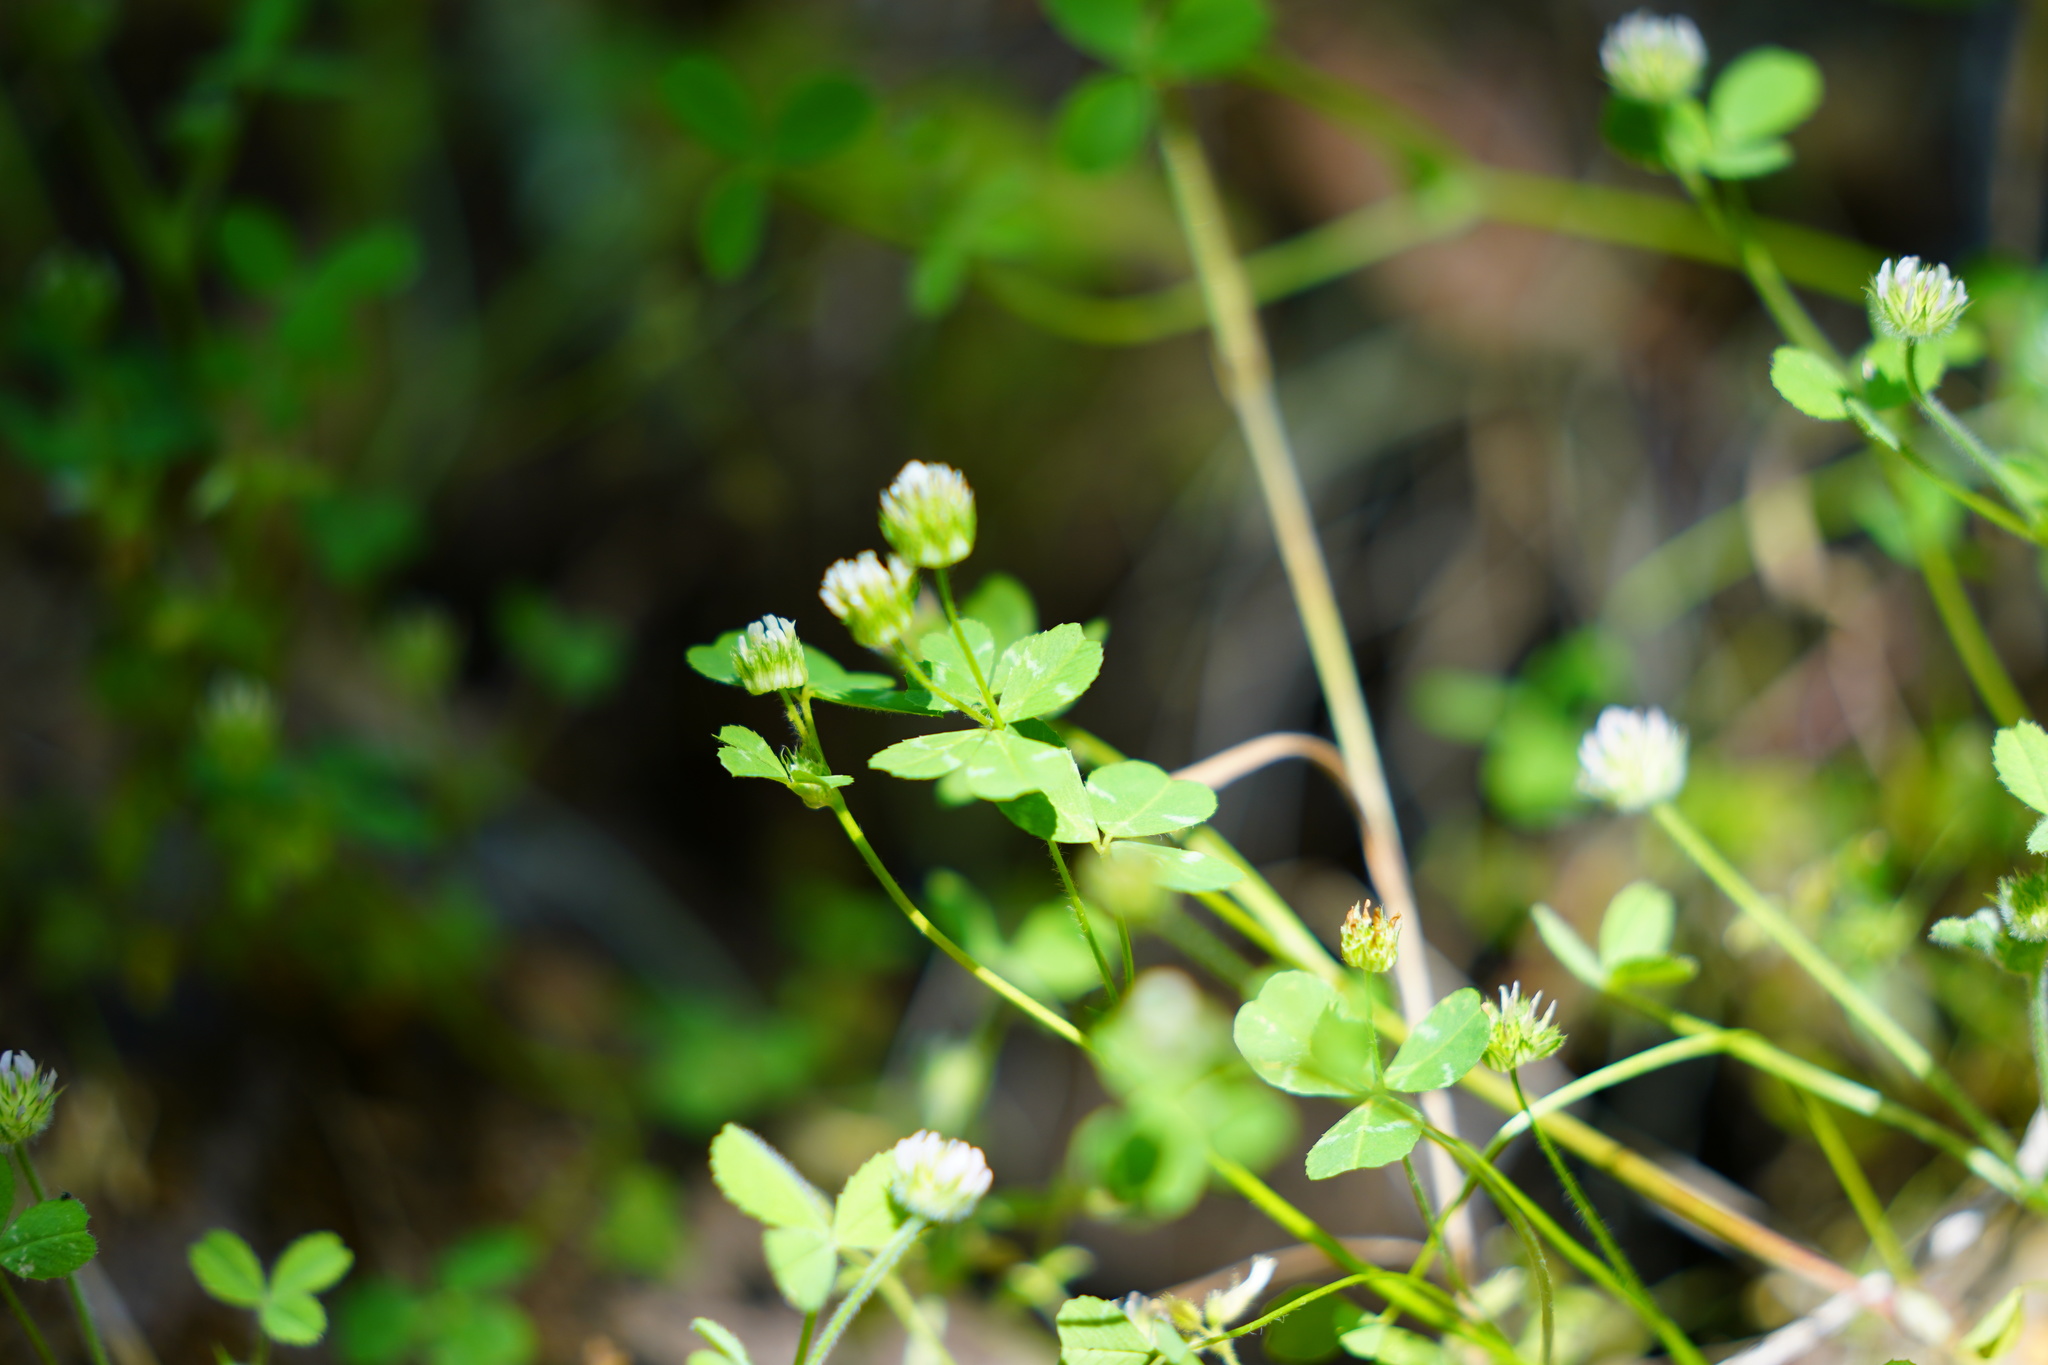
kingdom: Plantae
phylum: Tracheophyta
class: Magnoliopsida
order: Fabales
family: Fabaceae
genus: Trifolium
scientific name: Trifolium microdon
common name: Thimble clover
